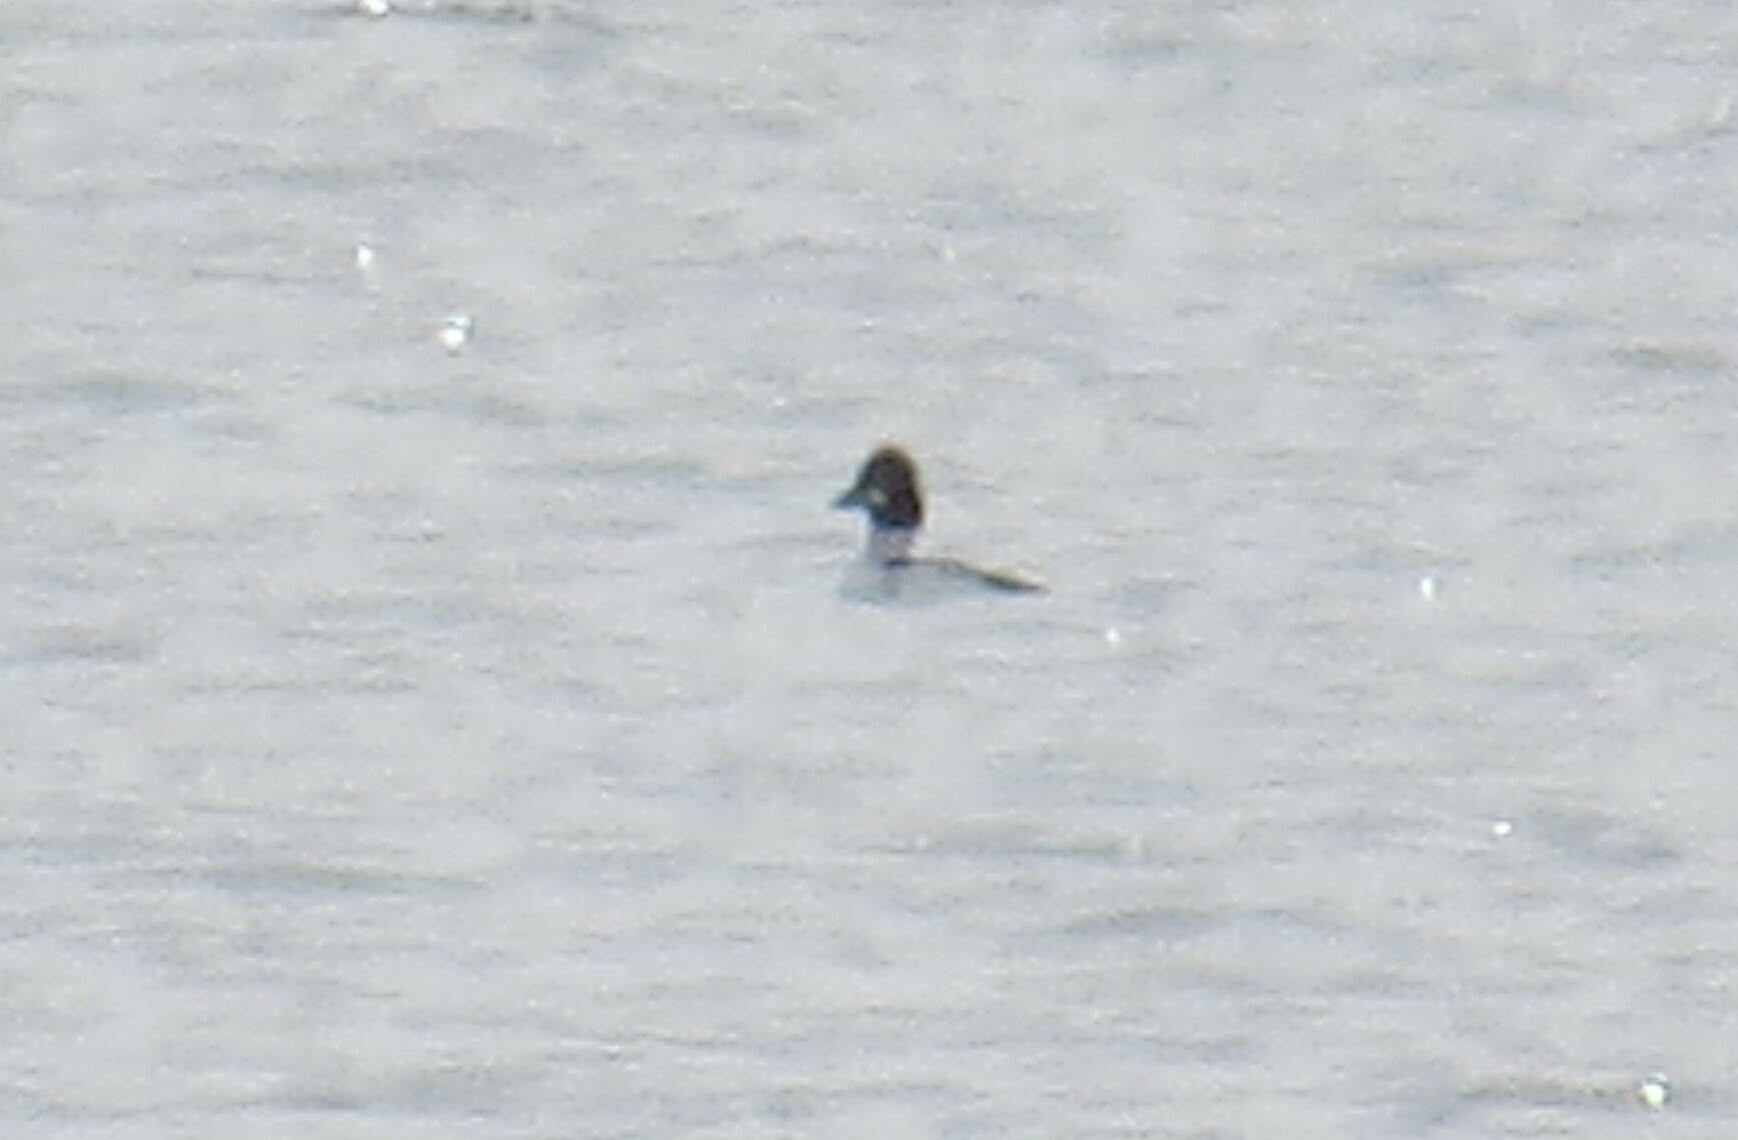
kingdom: Animalia
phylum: Chordata
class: Aves
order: Anseriformes
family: Anatidae
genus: Bucephala
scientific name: Bucephala clangula
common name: Common goldeneye
